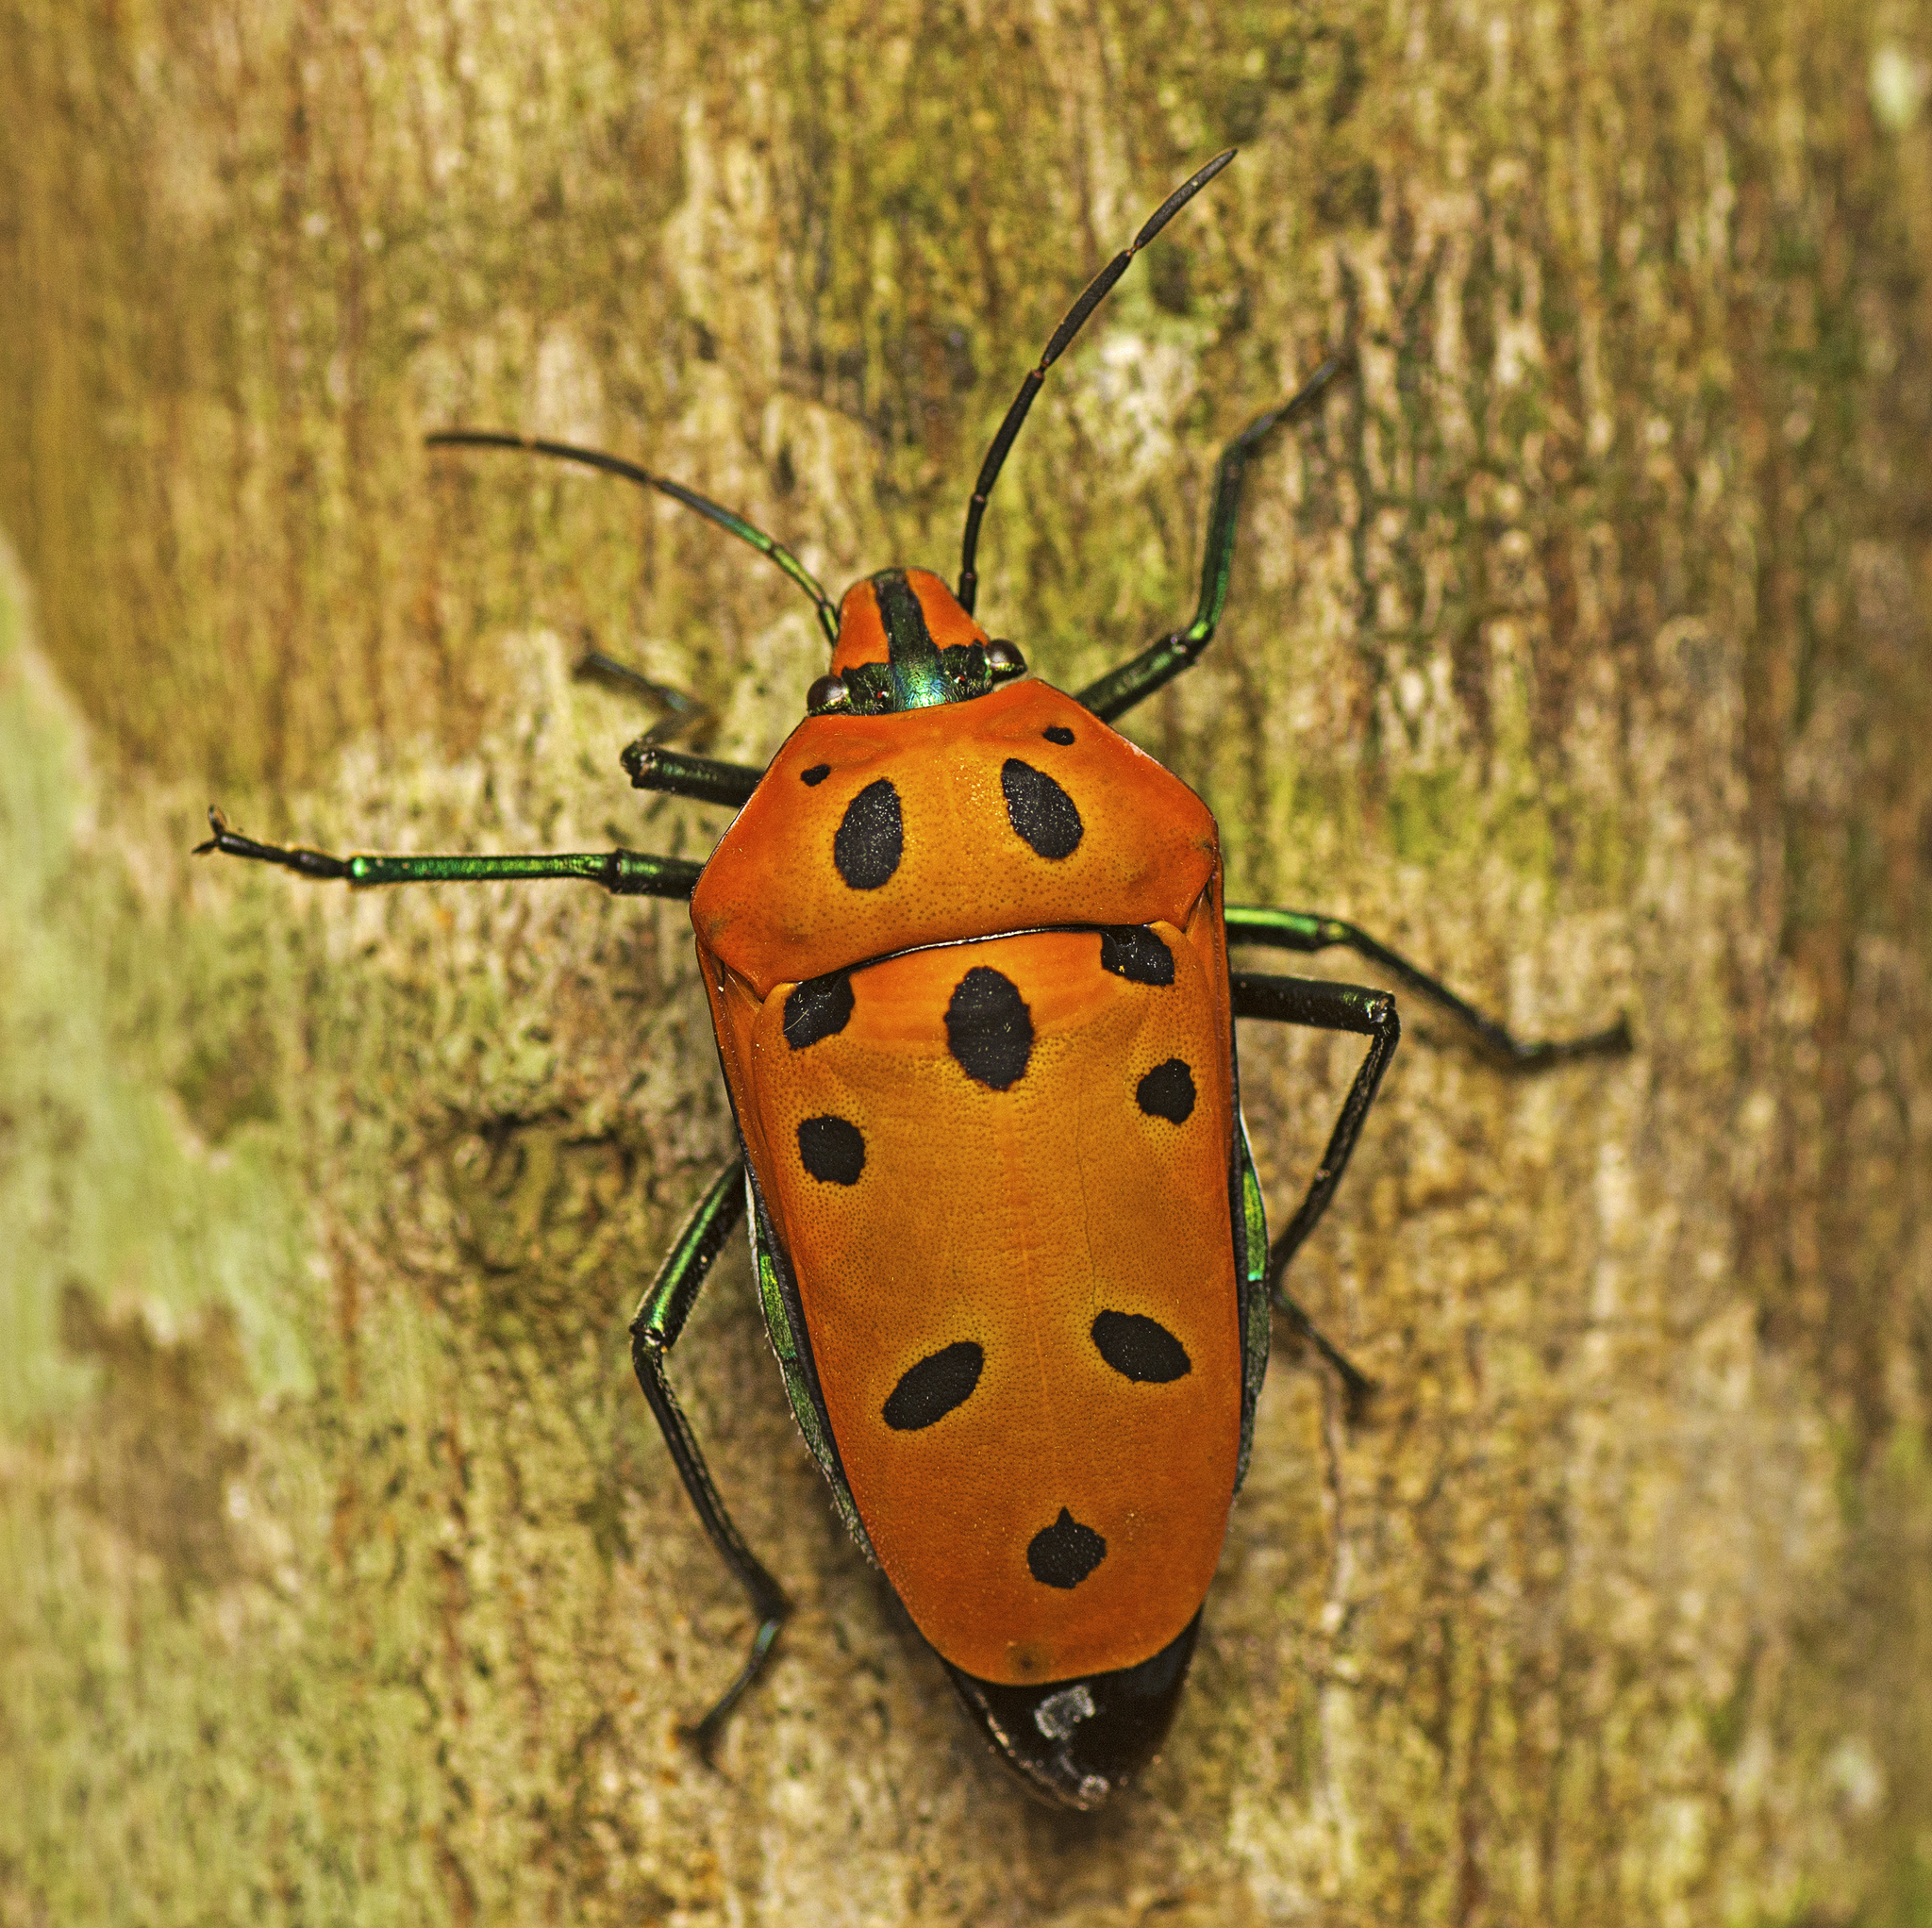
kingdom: Animalia
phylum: Arthropoda
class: Insecta
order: Hemiptera
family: Scutelleridae
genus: Cantao
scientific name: Cantao
